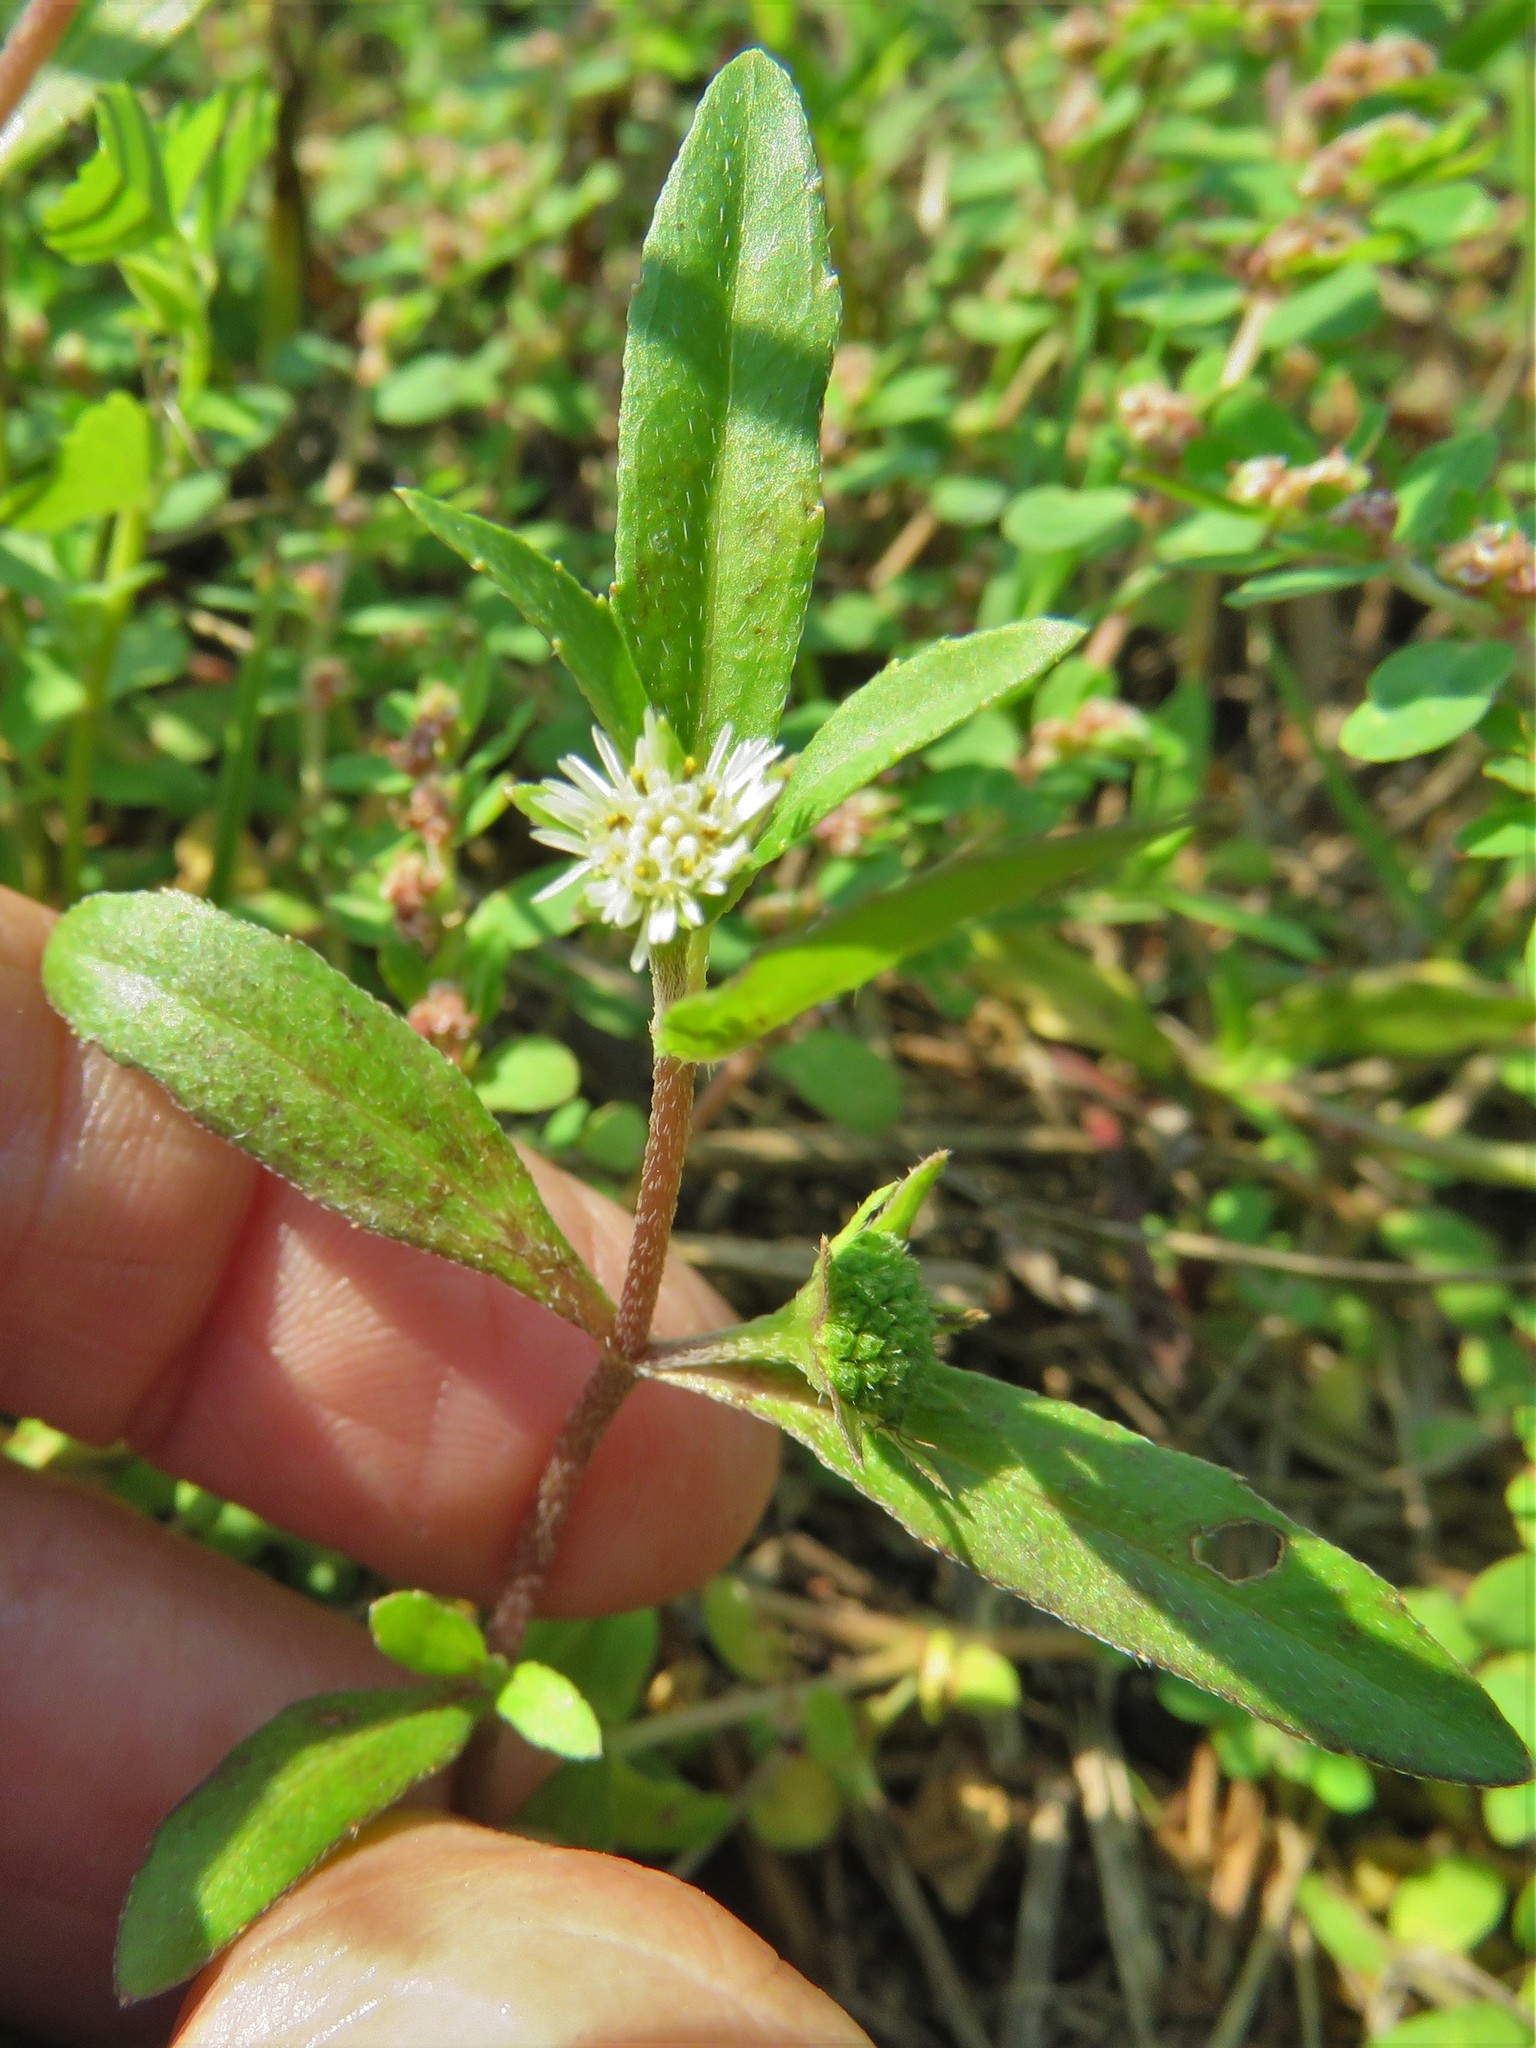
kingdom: Plantae
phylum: Tracheophyta
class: Magnoliopsida
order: Asterales
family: Asteraceae
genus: Eclipta
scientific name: Eclipta prostrata
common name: False daisy
